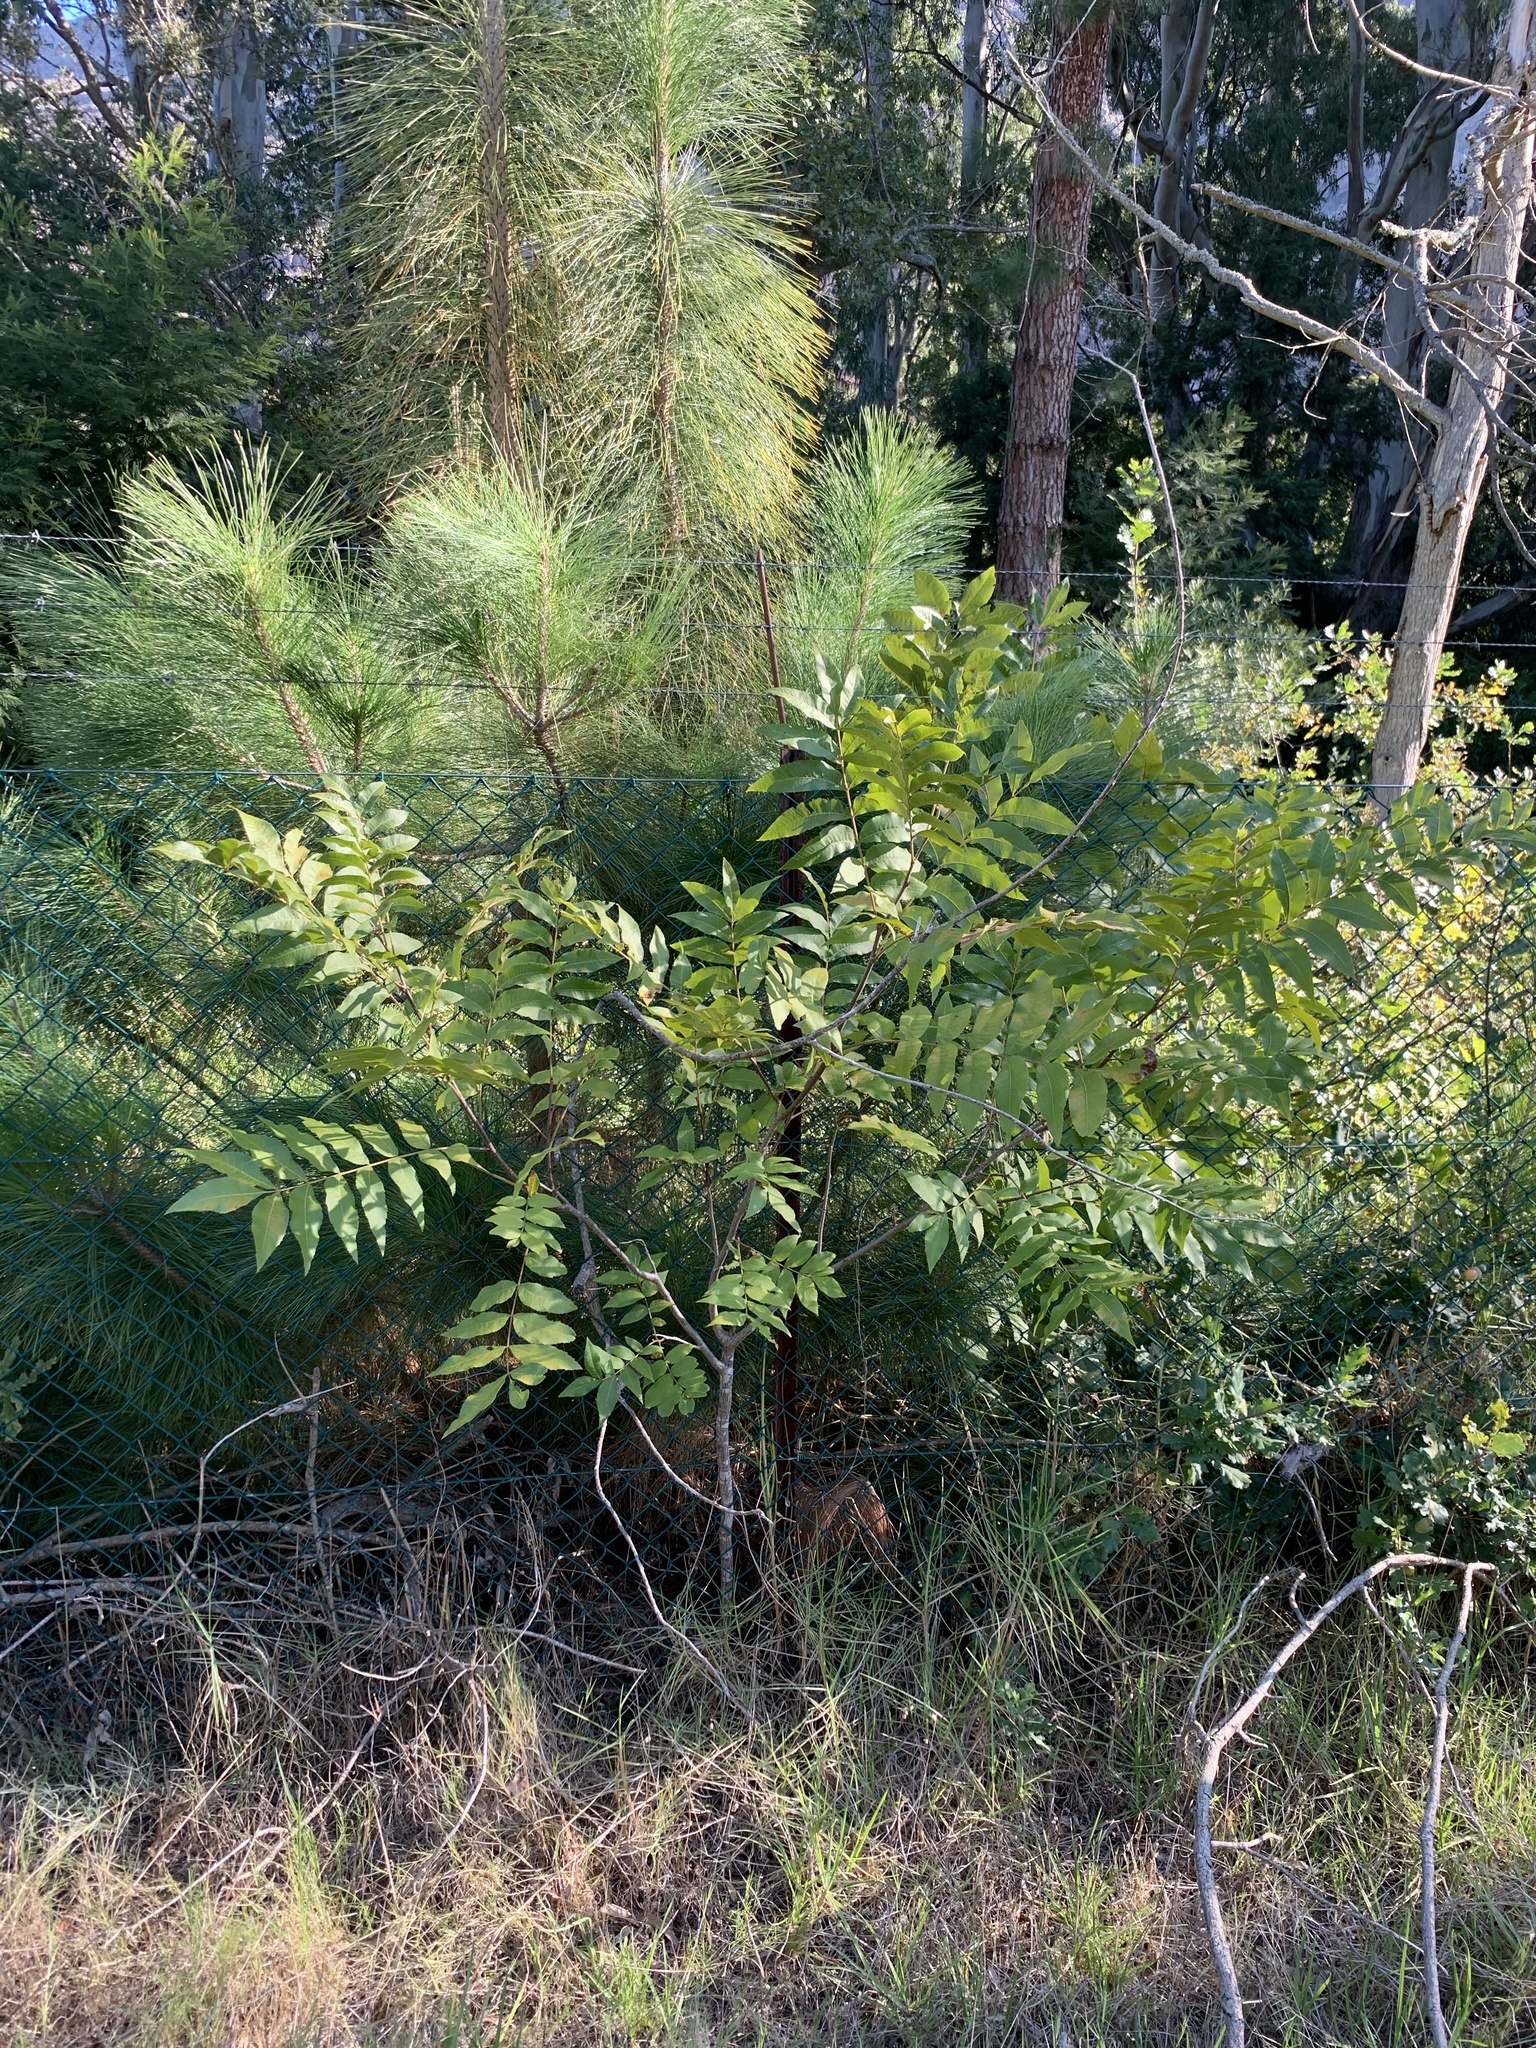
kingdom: Plantae
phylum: Tracheophyta
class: Magnoliopsida
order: Fagales
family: Juglandaceae
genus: Carya
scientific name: Carya illinoinensis
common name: Pecan
